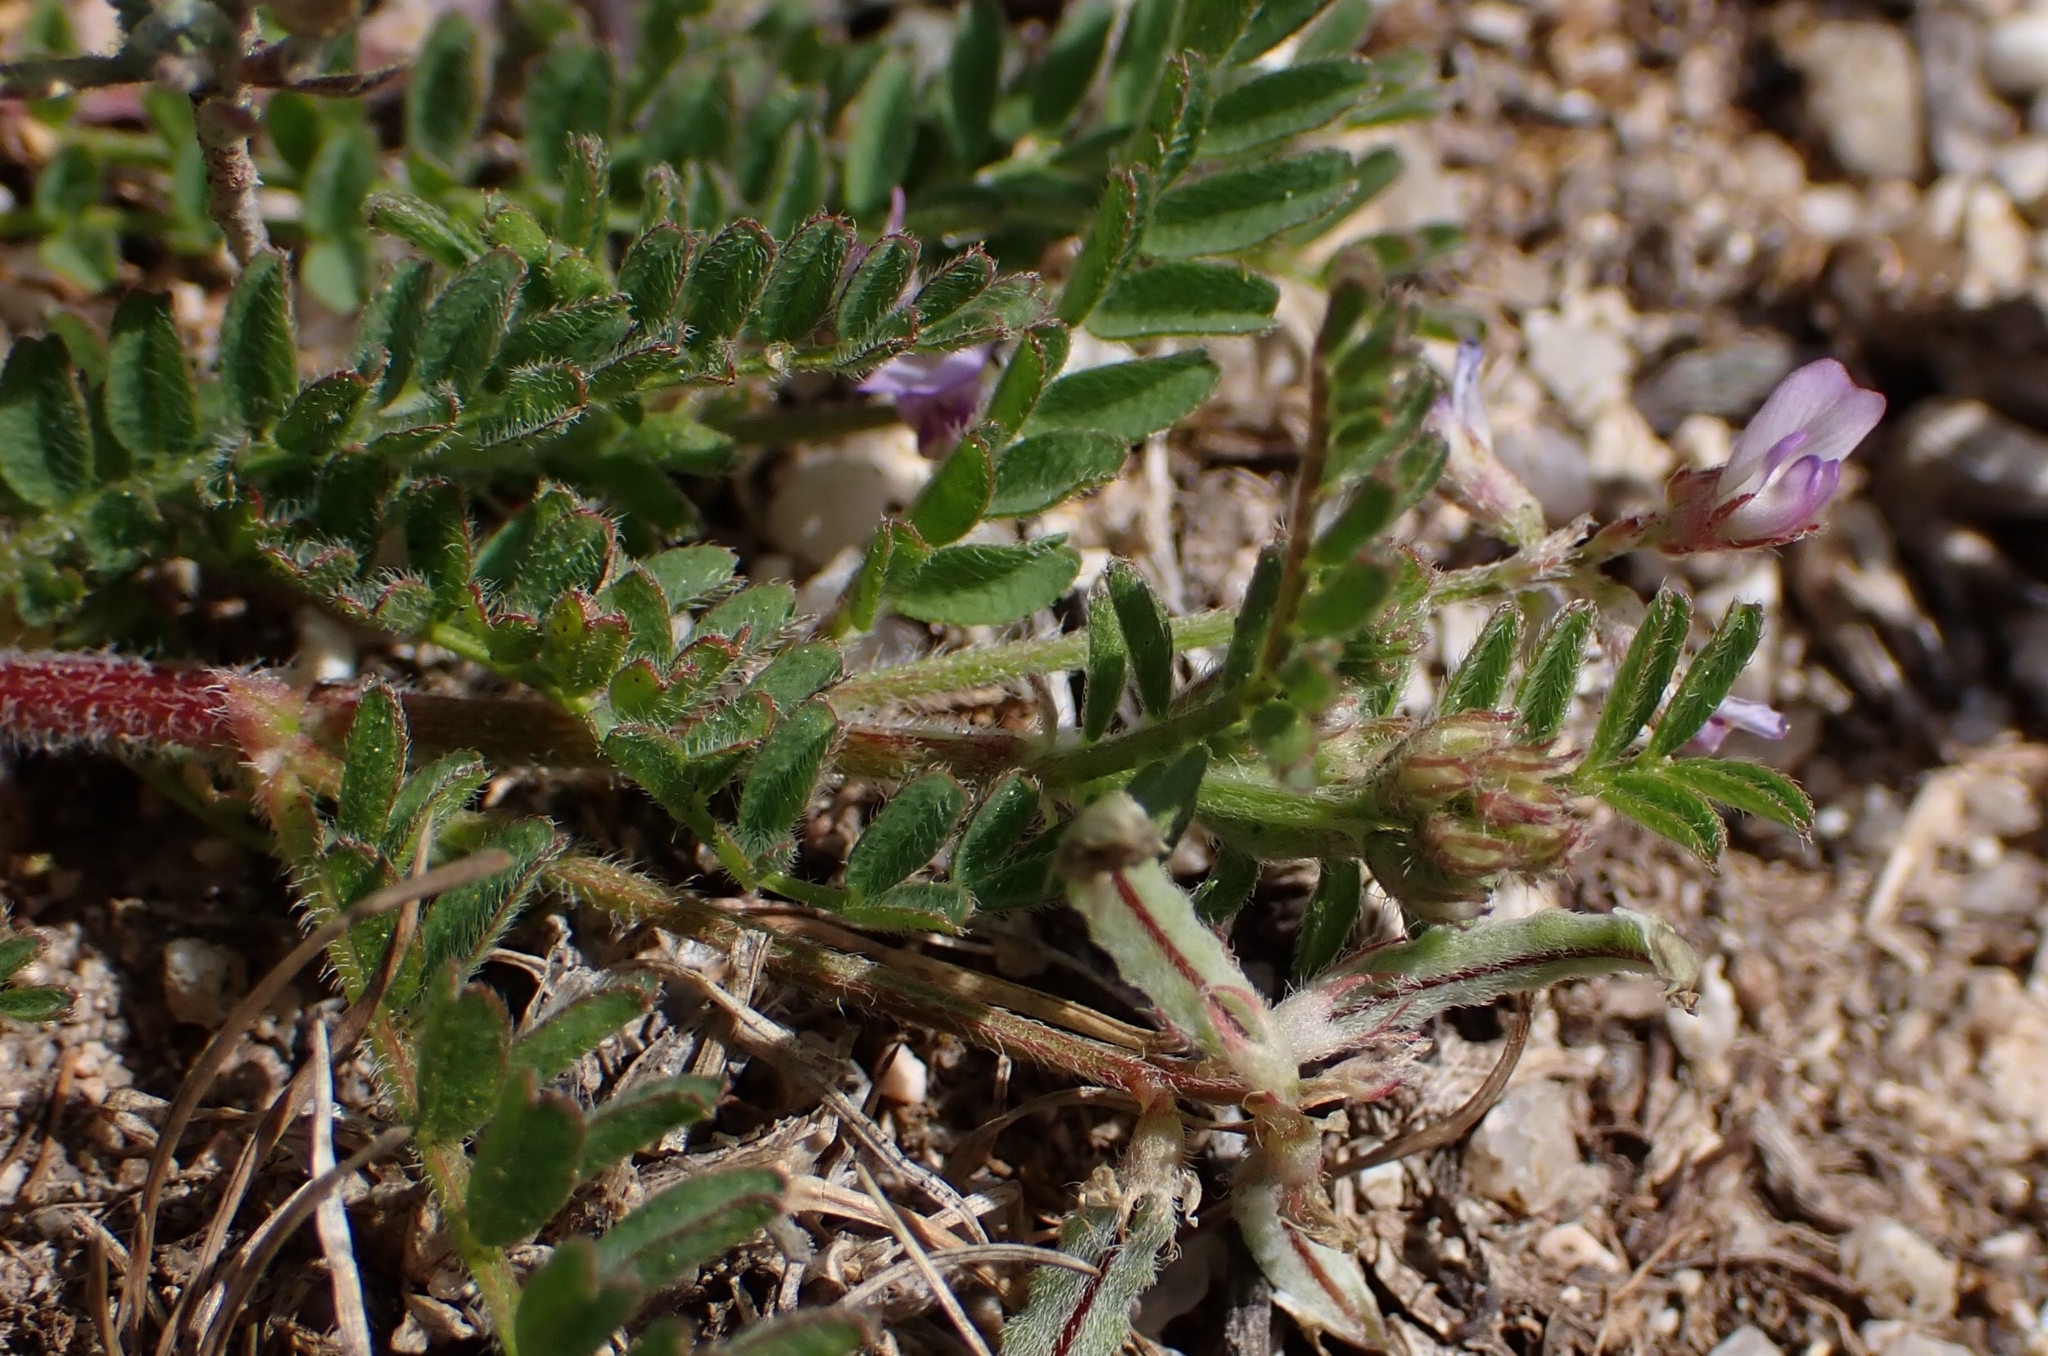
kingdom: Plantae
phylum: Tracheophyta
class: Magnoliopsida
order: Fabales
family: Fabaceae
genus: Biserrula
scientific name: Biserrula pelecinus
